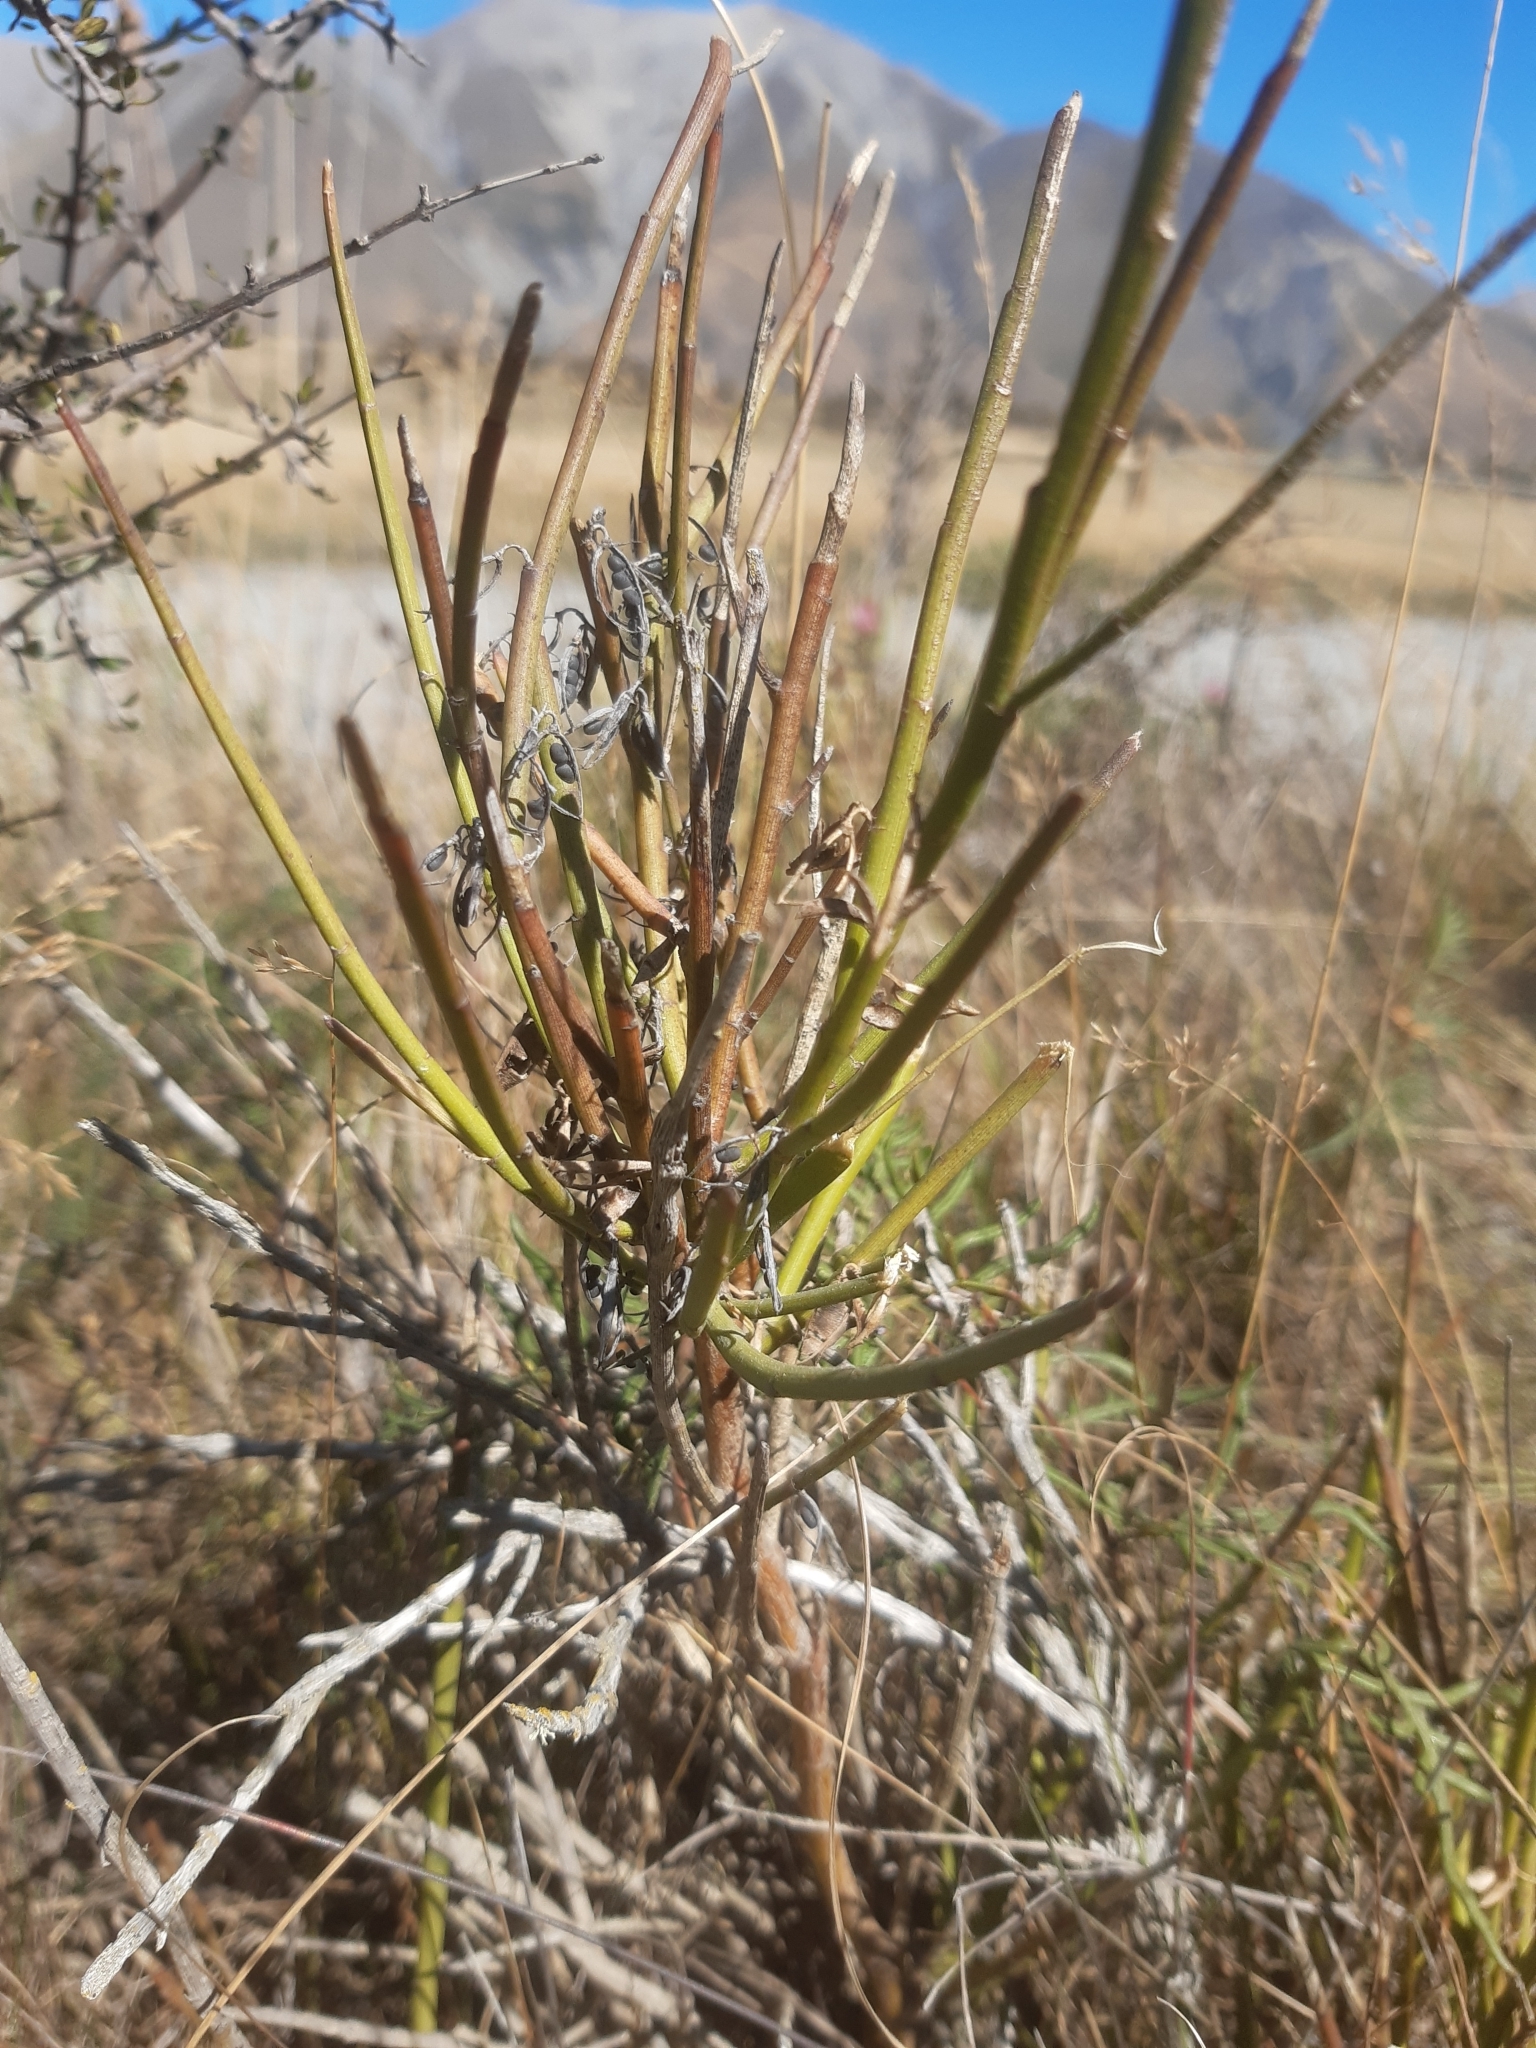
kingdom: Plantae
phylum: Tracheophyta
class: Magnoliopsida
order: Fabales
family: Fabaceae
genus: Carmichaelia
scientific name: Carmichaelia australis
